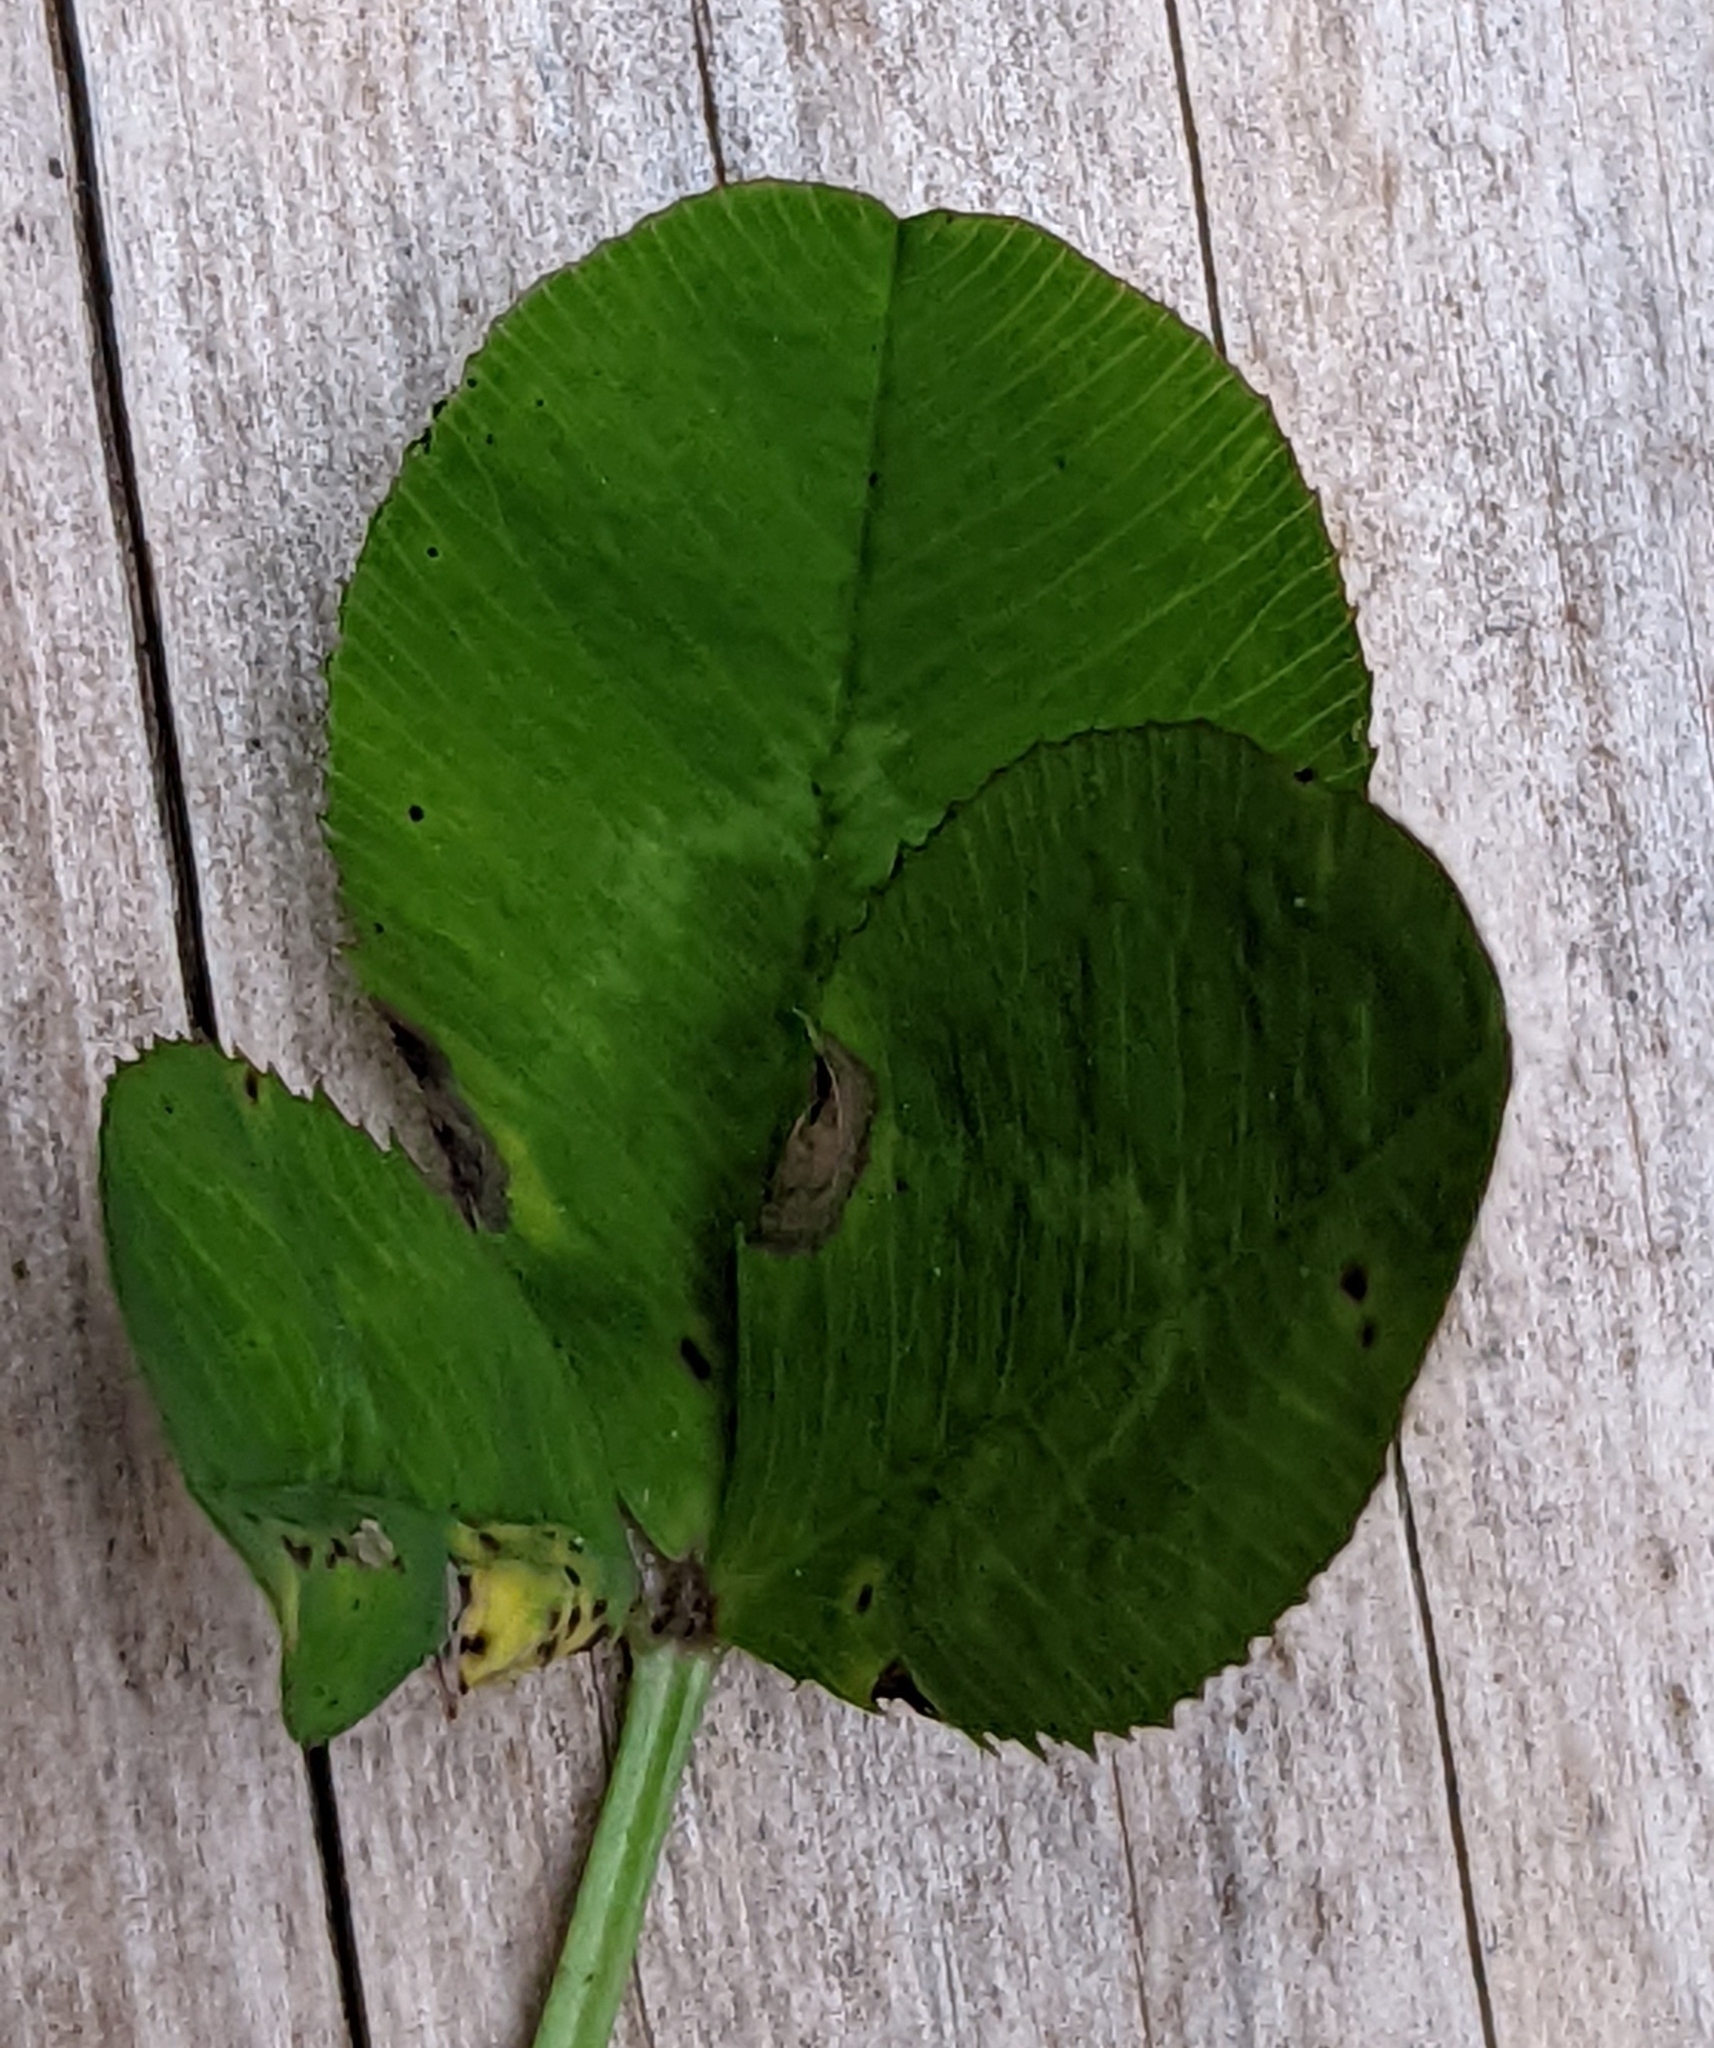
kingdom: Plantae
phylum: Tracheophyta
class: Magnoliopsida
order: Fabales
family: Fabaceae
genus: Trifolium
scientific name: Trifolium repens
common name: White clover
